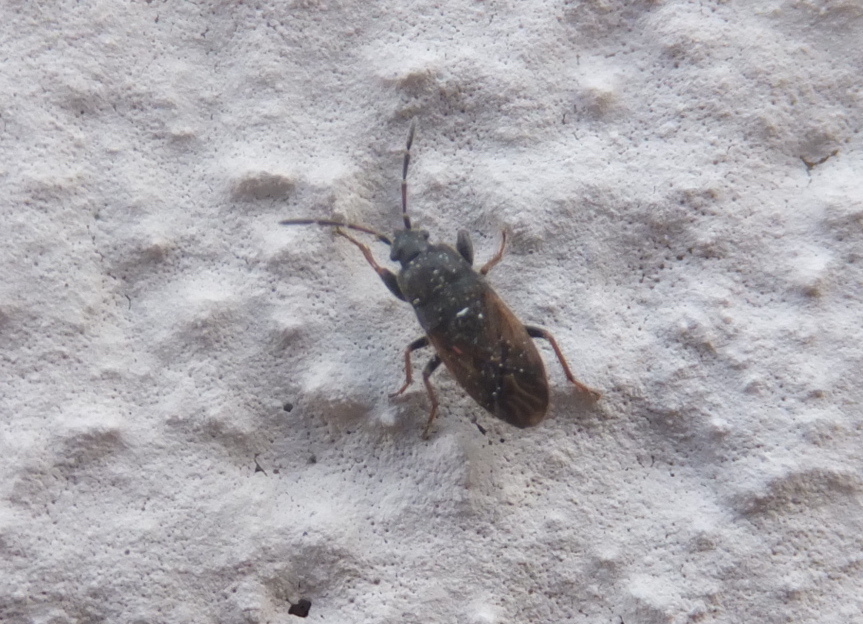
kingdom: Animalia
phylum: Arthropoda
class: Insecta
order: Hemiptera
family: Rhyparochromidae
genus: Megalonotus
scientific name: Megalonotus sabulicola
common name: Seed bug
